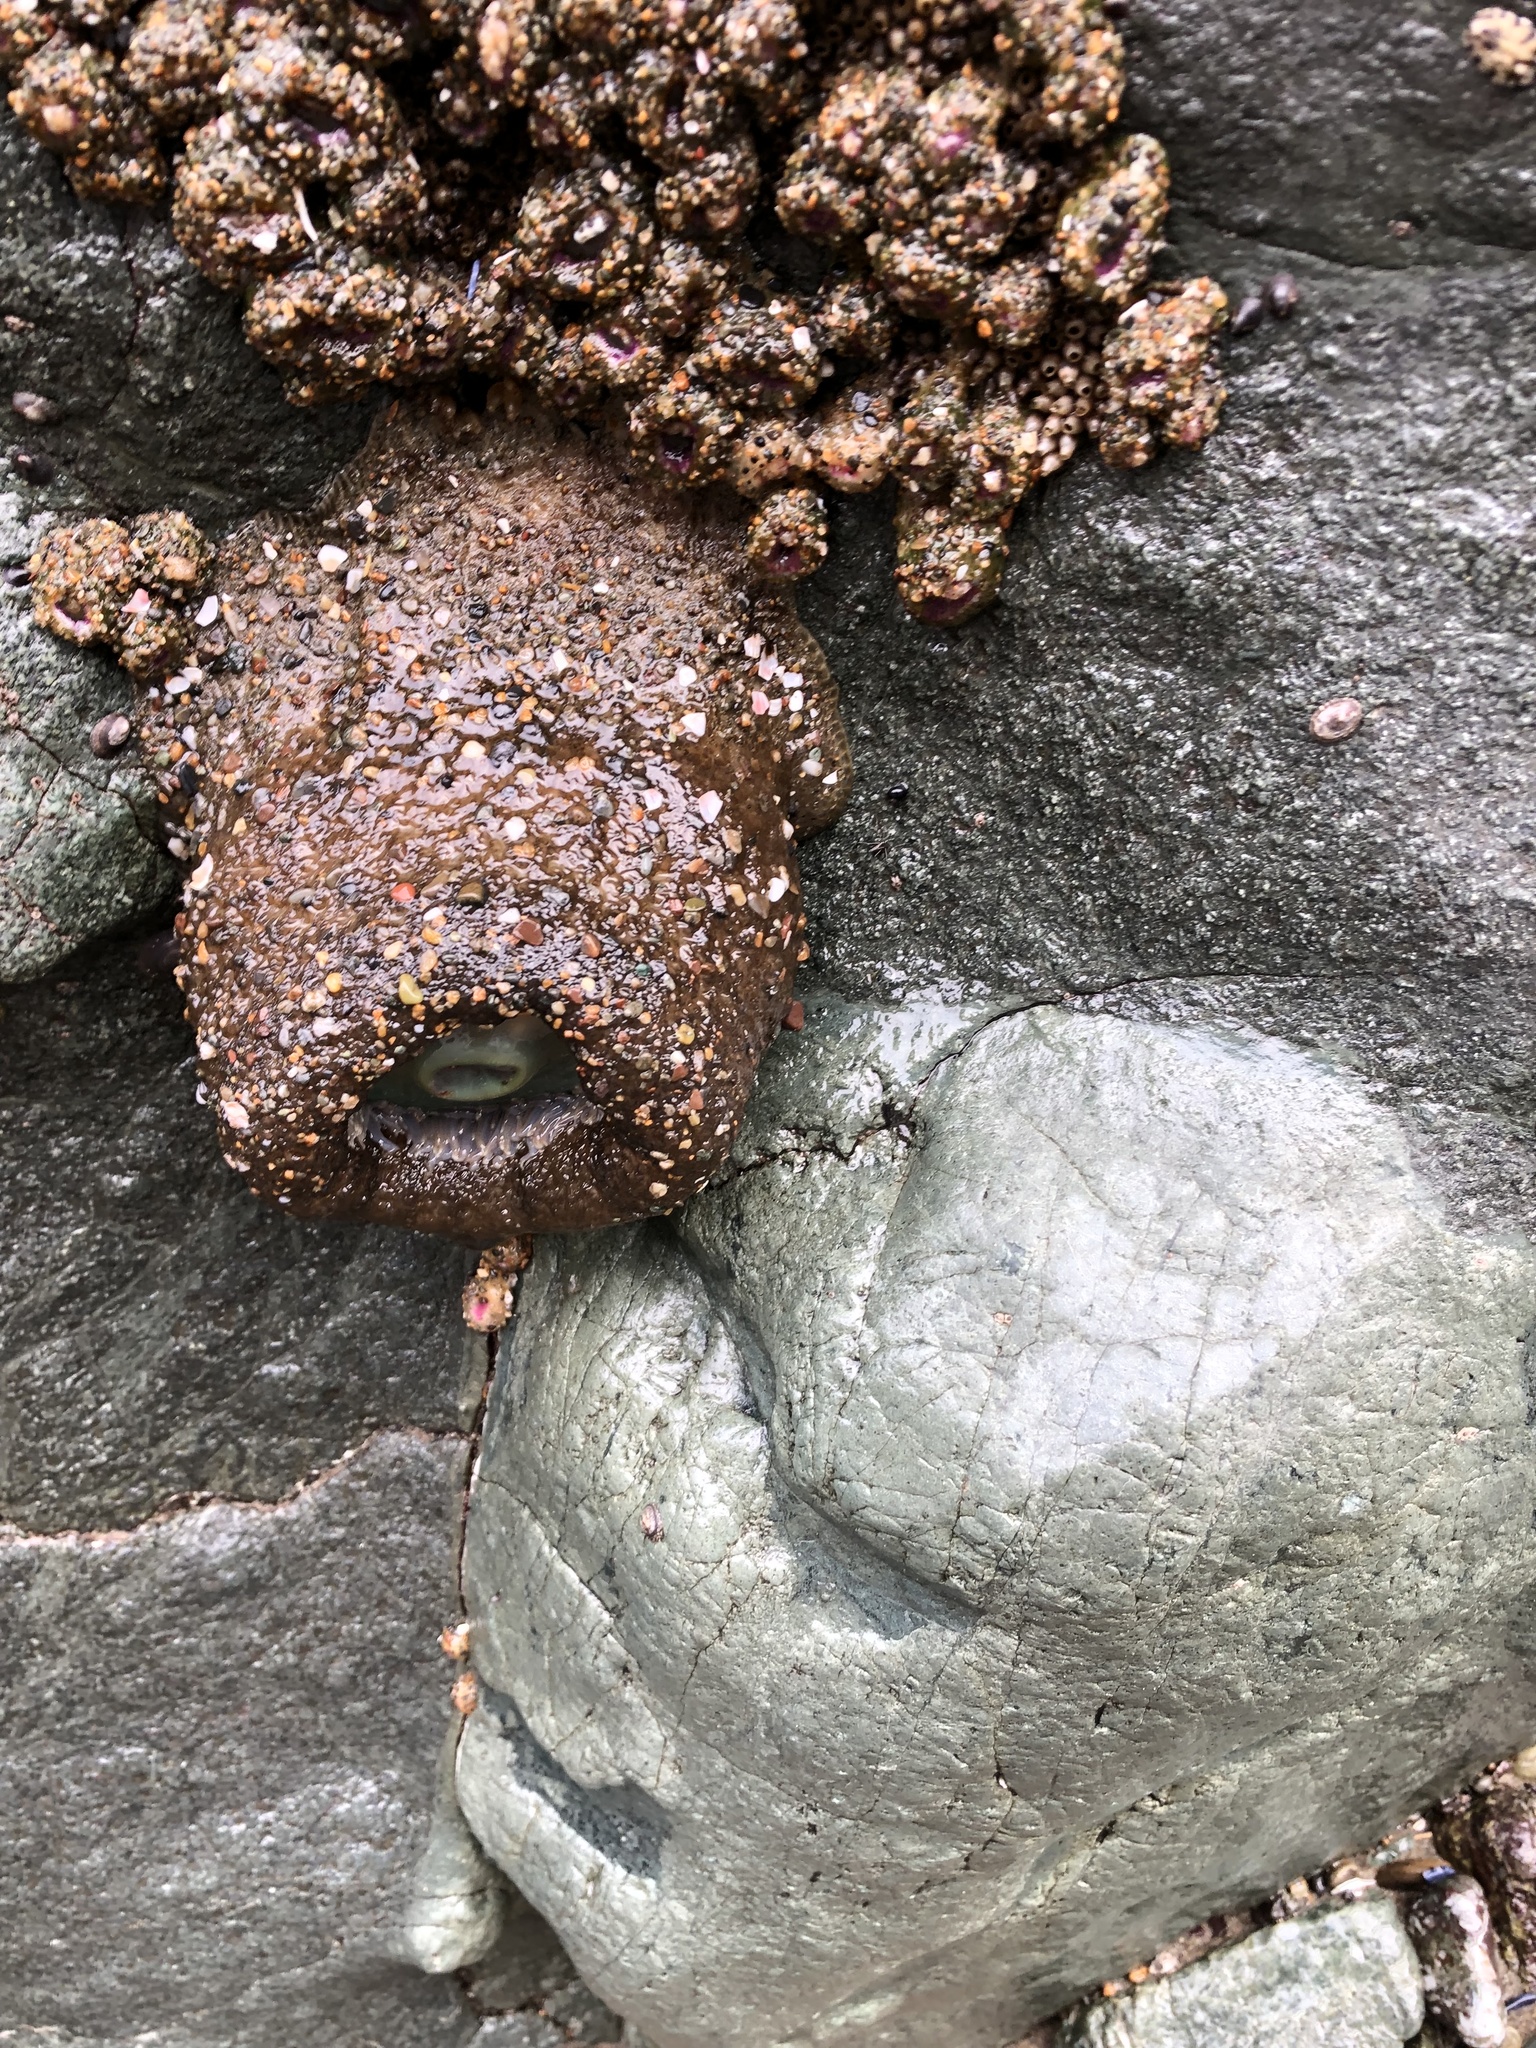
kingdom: Animalia
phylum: Cnidaria
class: Anthozoa
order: Actiniaria
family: Actiniidae
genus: Anthopleura
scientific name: Anthopleura xanthogrammica
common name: Giant green anemone
